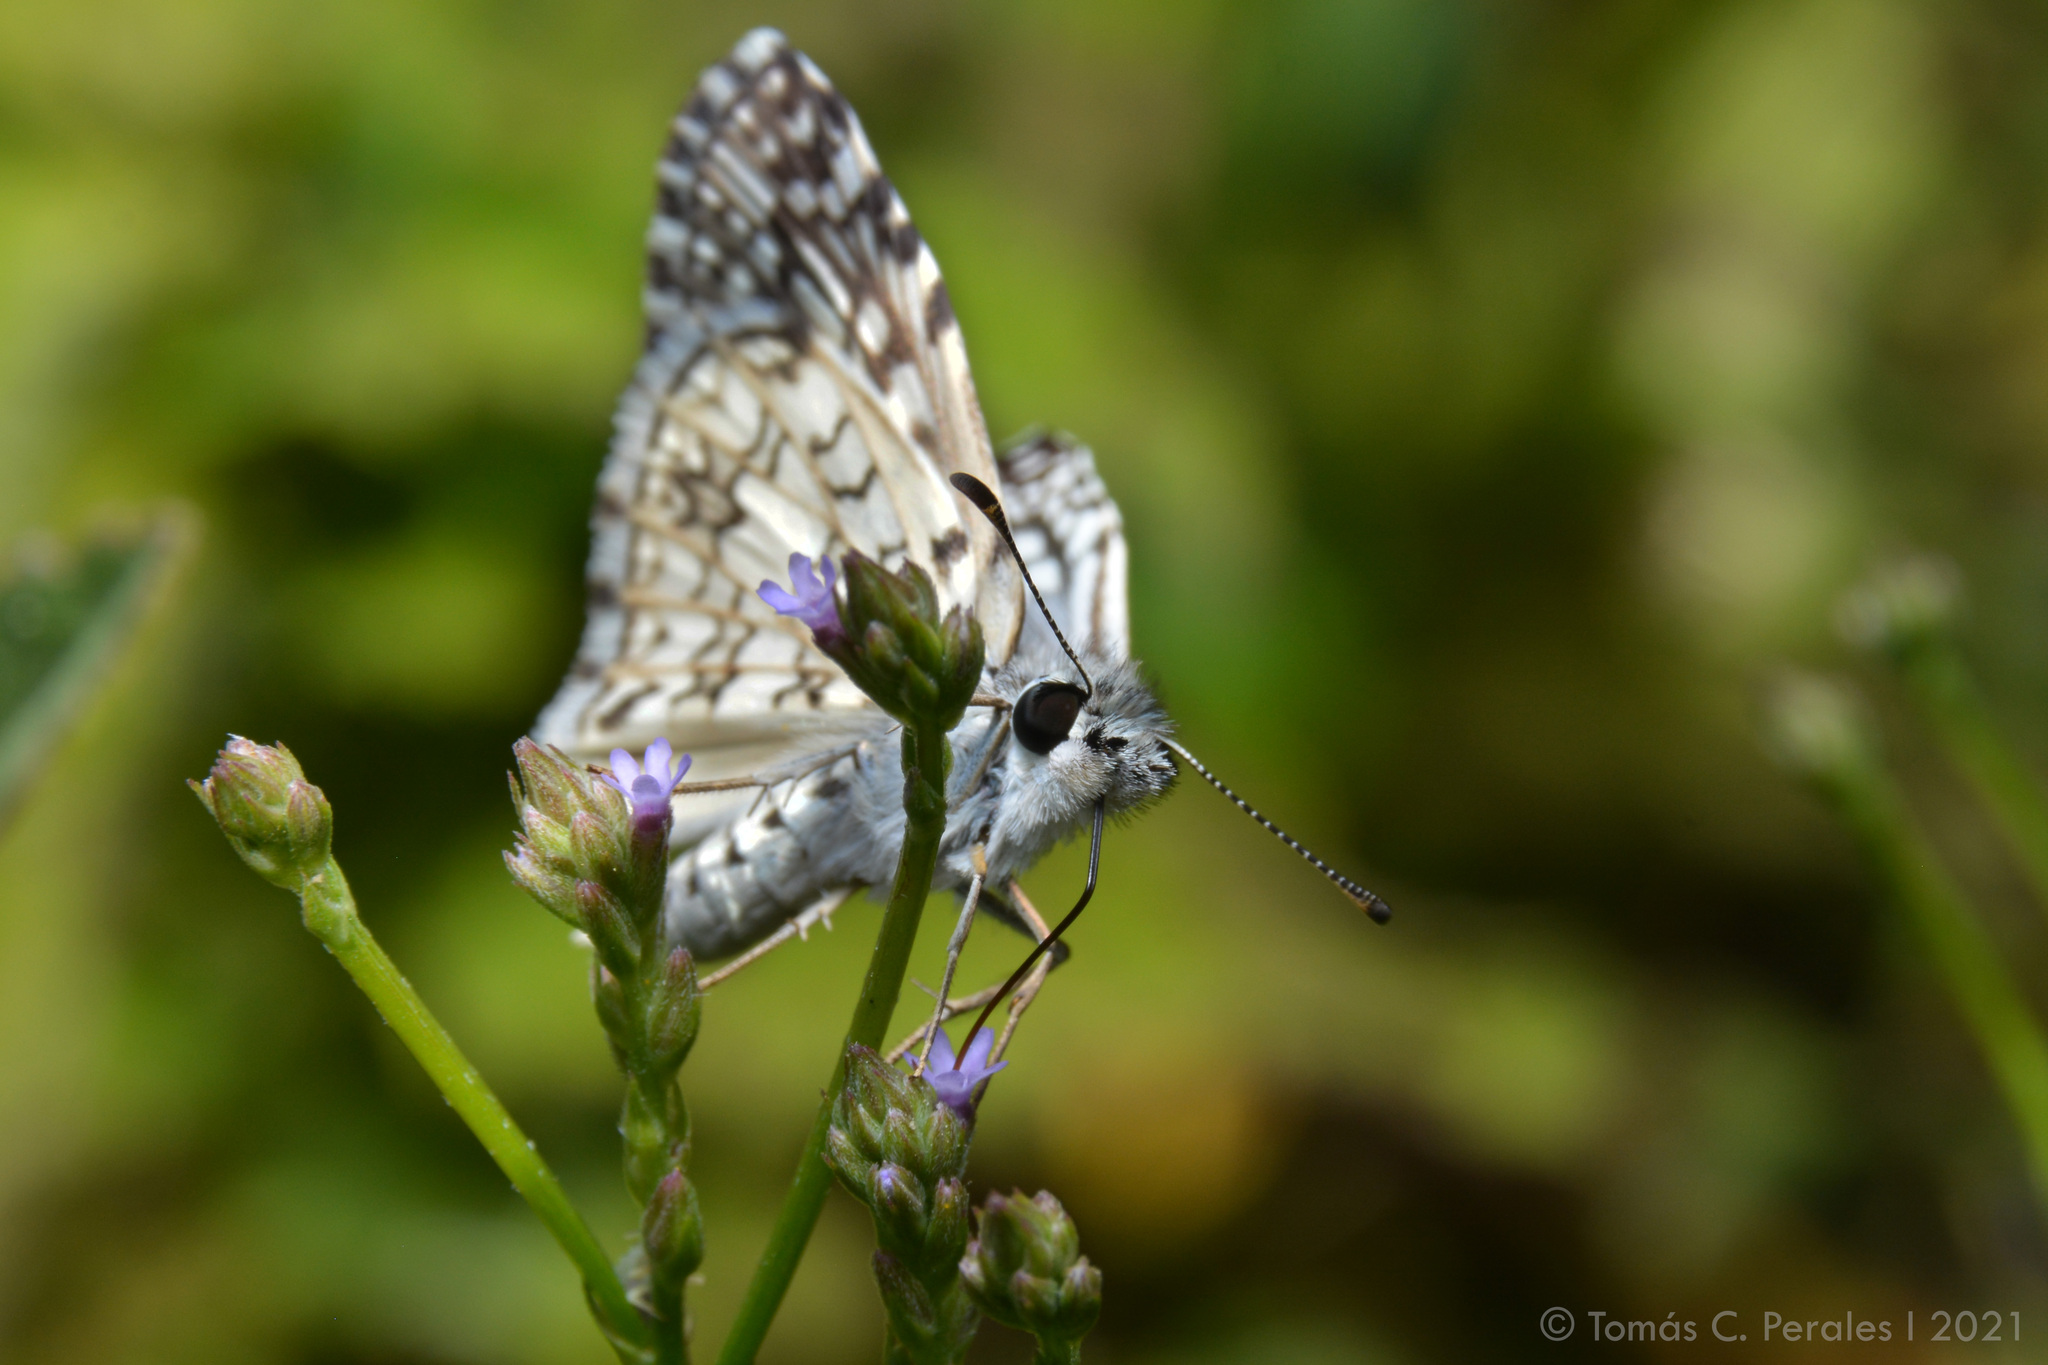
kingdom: Animalia
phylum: Arthropoda
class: Insecta
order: Lepidoptera
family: Hesperiidae
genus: Pyrgus
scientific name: Pyrgus oileus
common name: Tropical checkered-skipper
